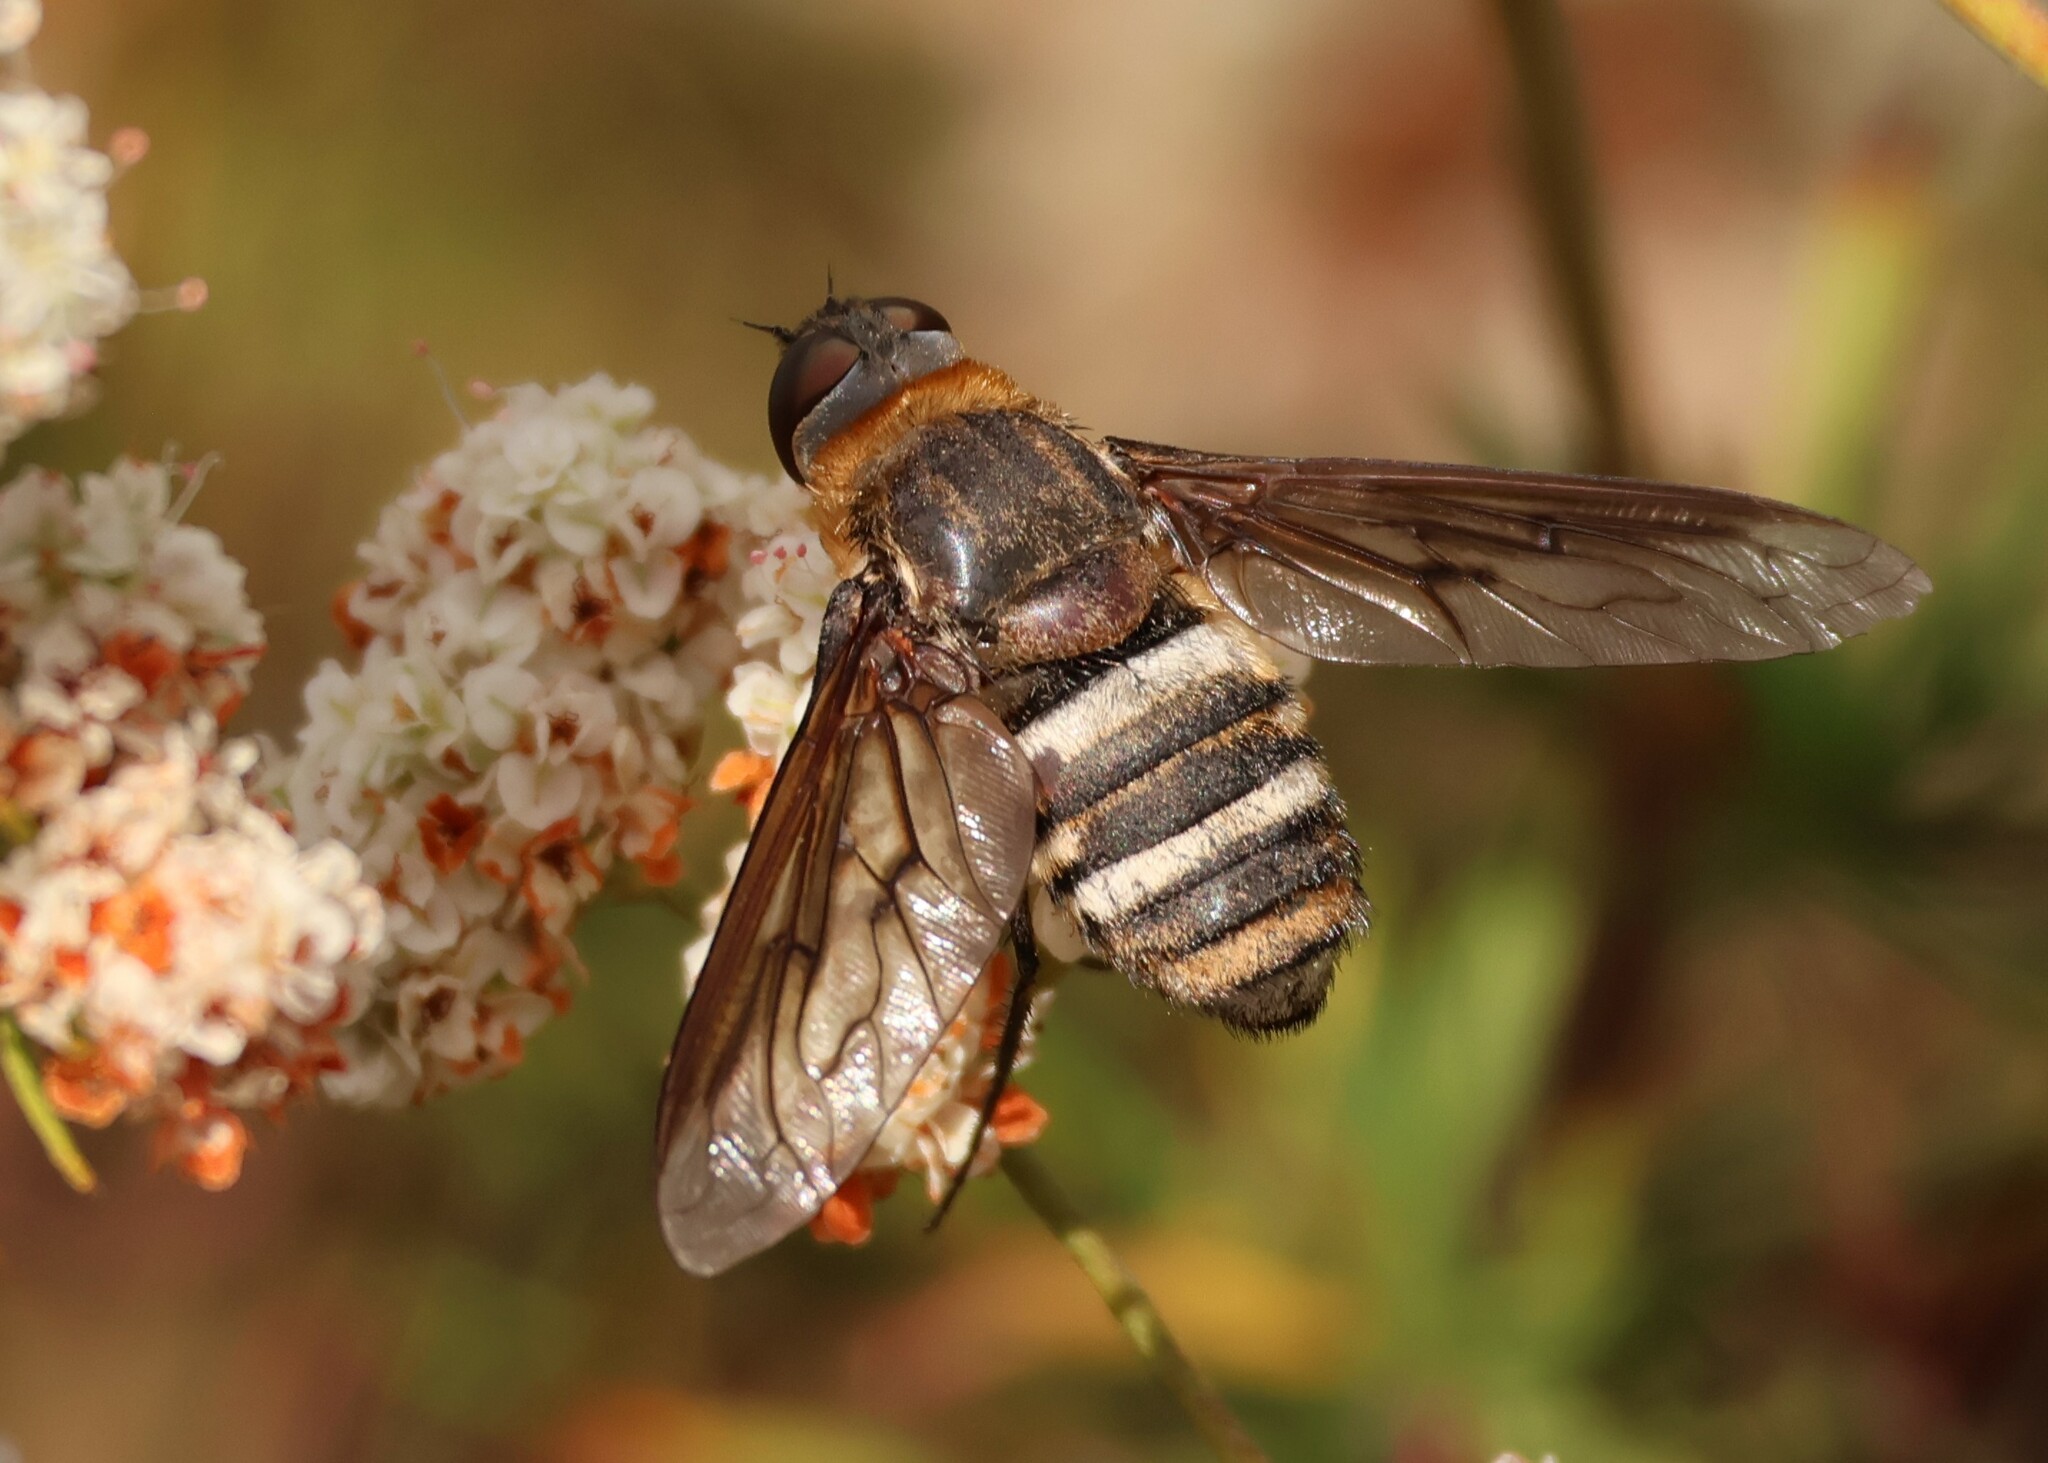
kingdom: Animalia
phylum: Arthropoda
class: Insecta
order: Diptera
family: Bombyliidae
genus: Exoprosopa
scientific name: Exoprosopa fascipennis
